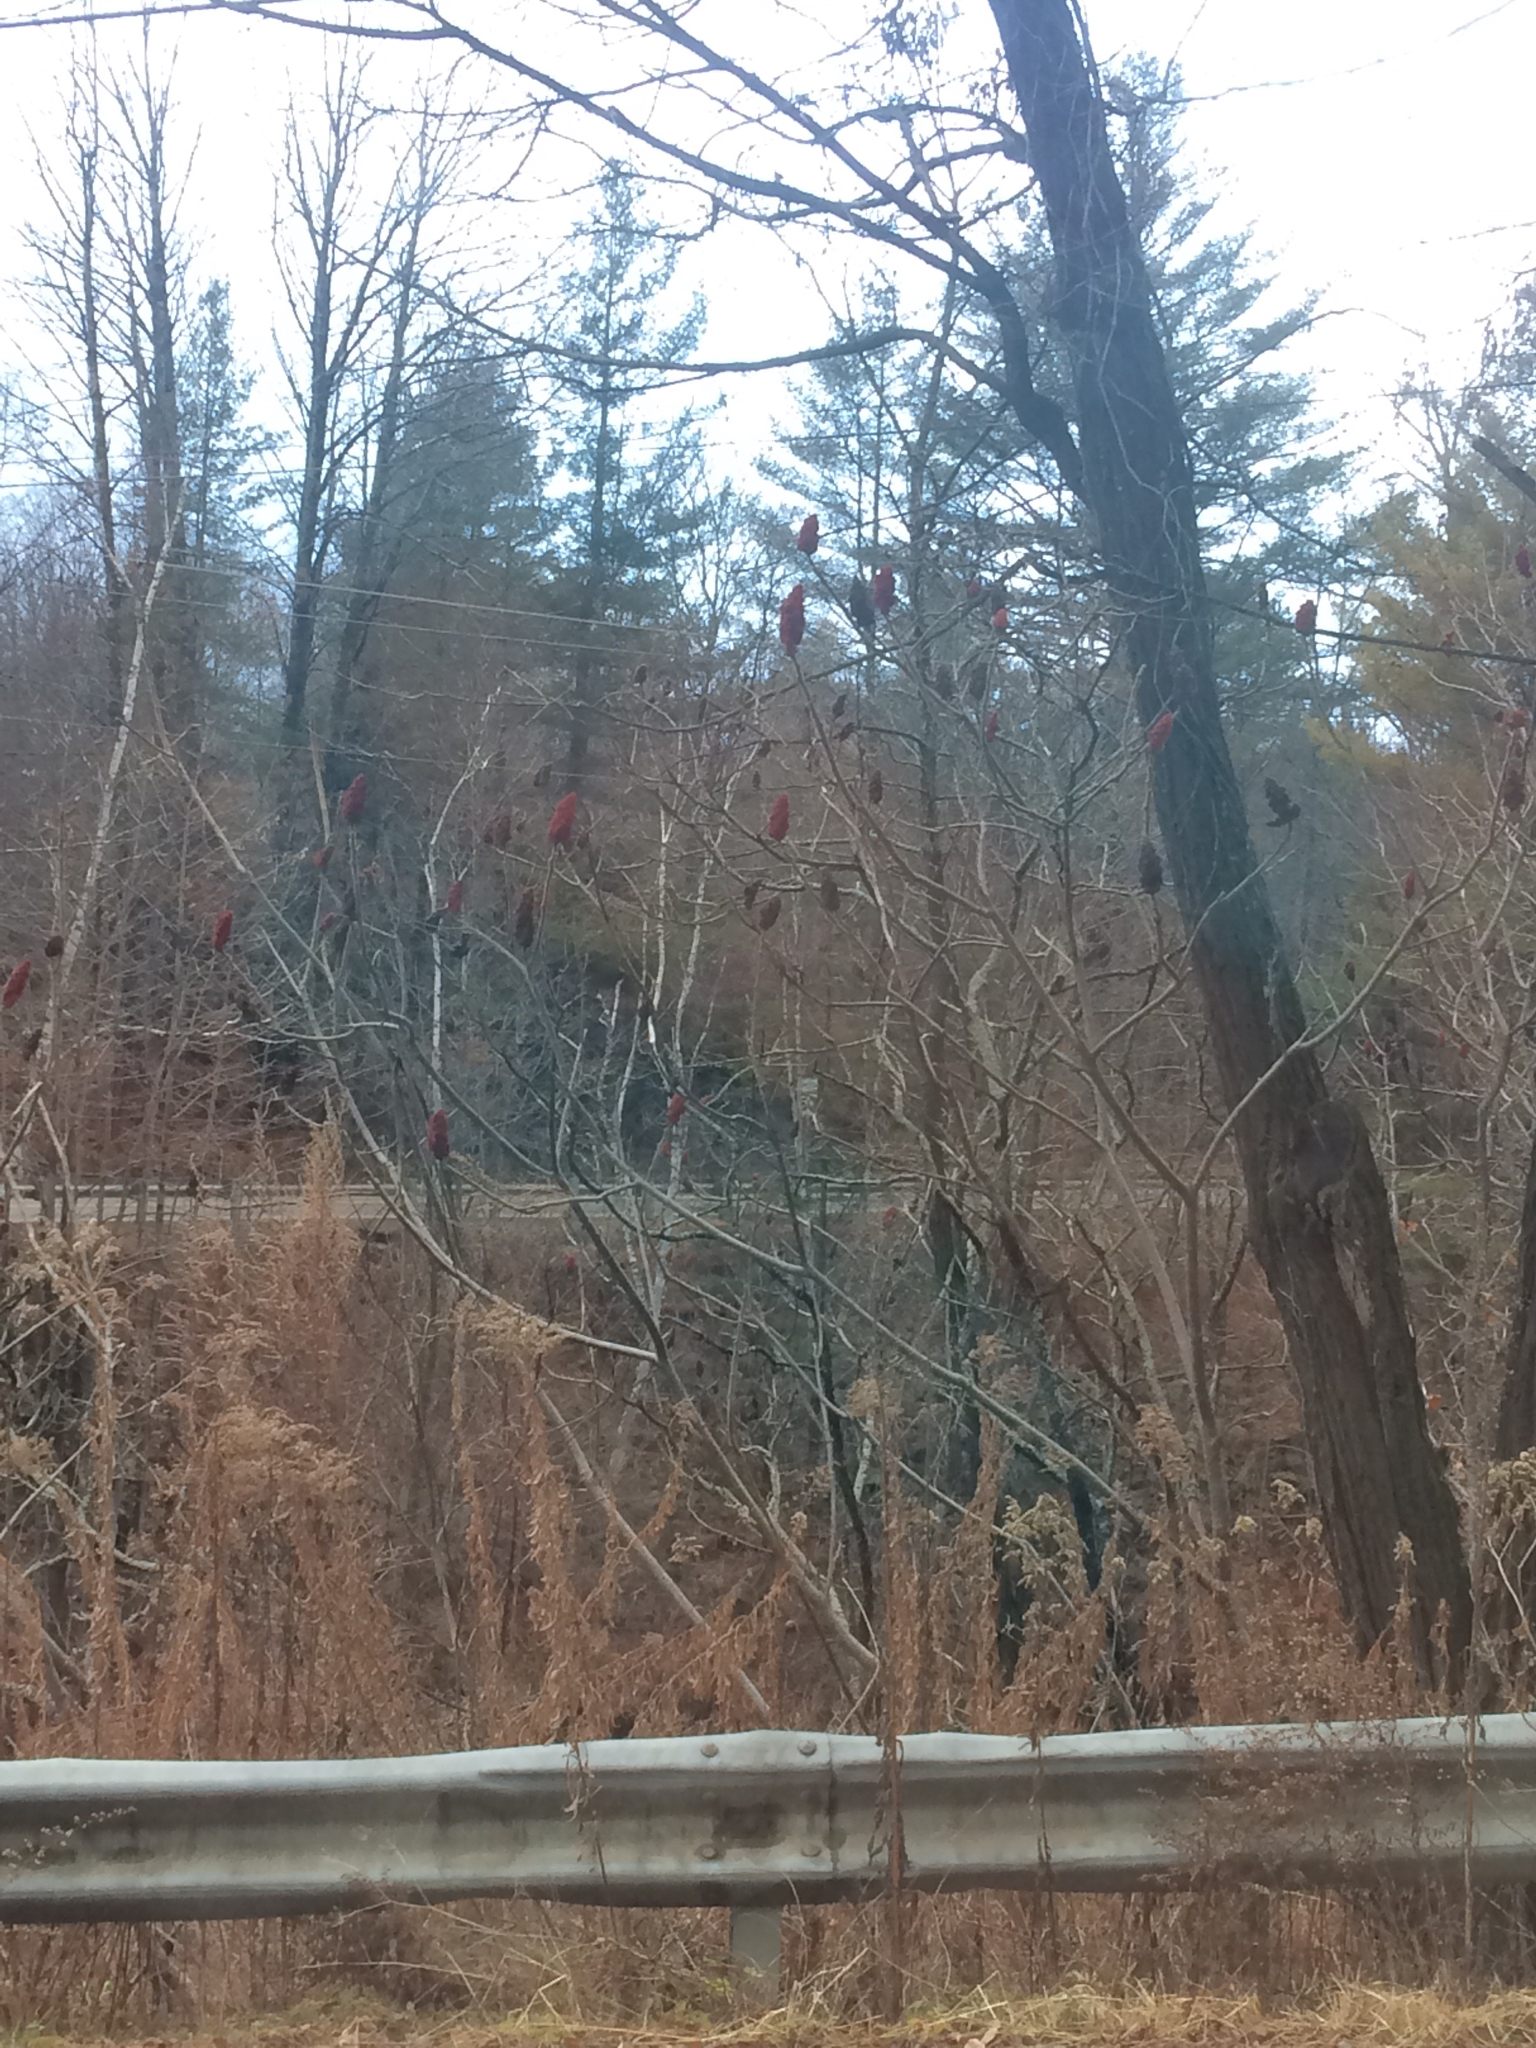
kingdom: Plantae
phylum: Tracheophyta
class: Magnoliopsida
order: Sapindales
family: Anacardiaceae
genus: Rhus
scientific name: Rhus typhina
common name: Staghorn sumac
